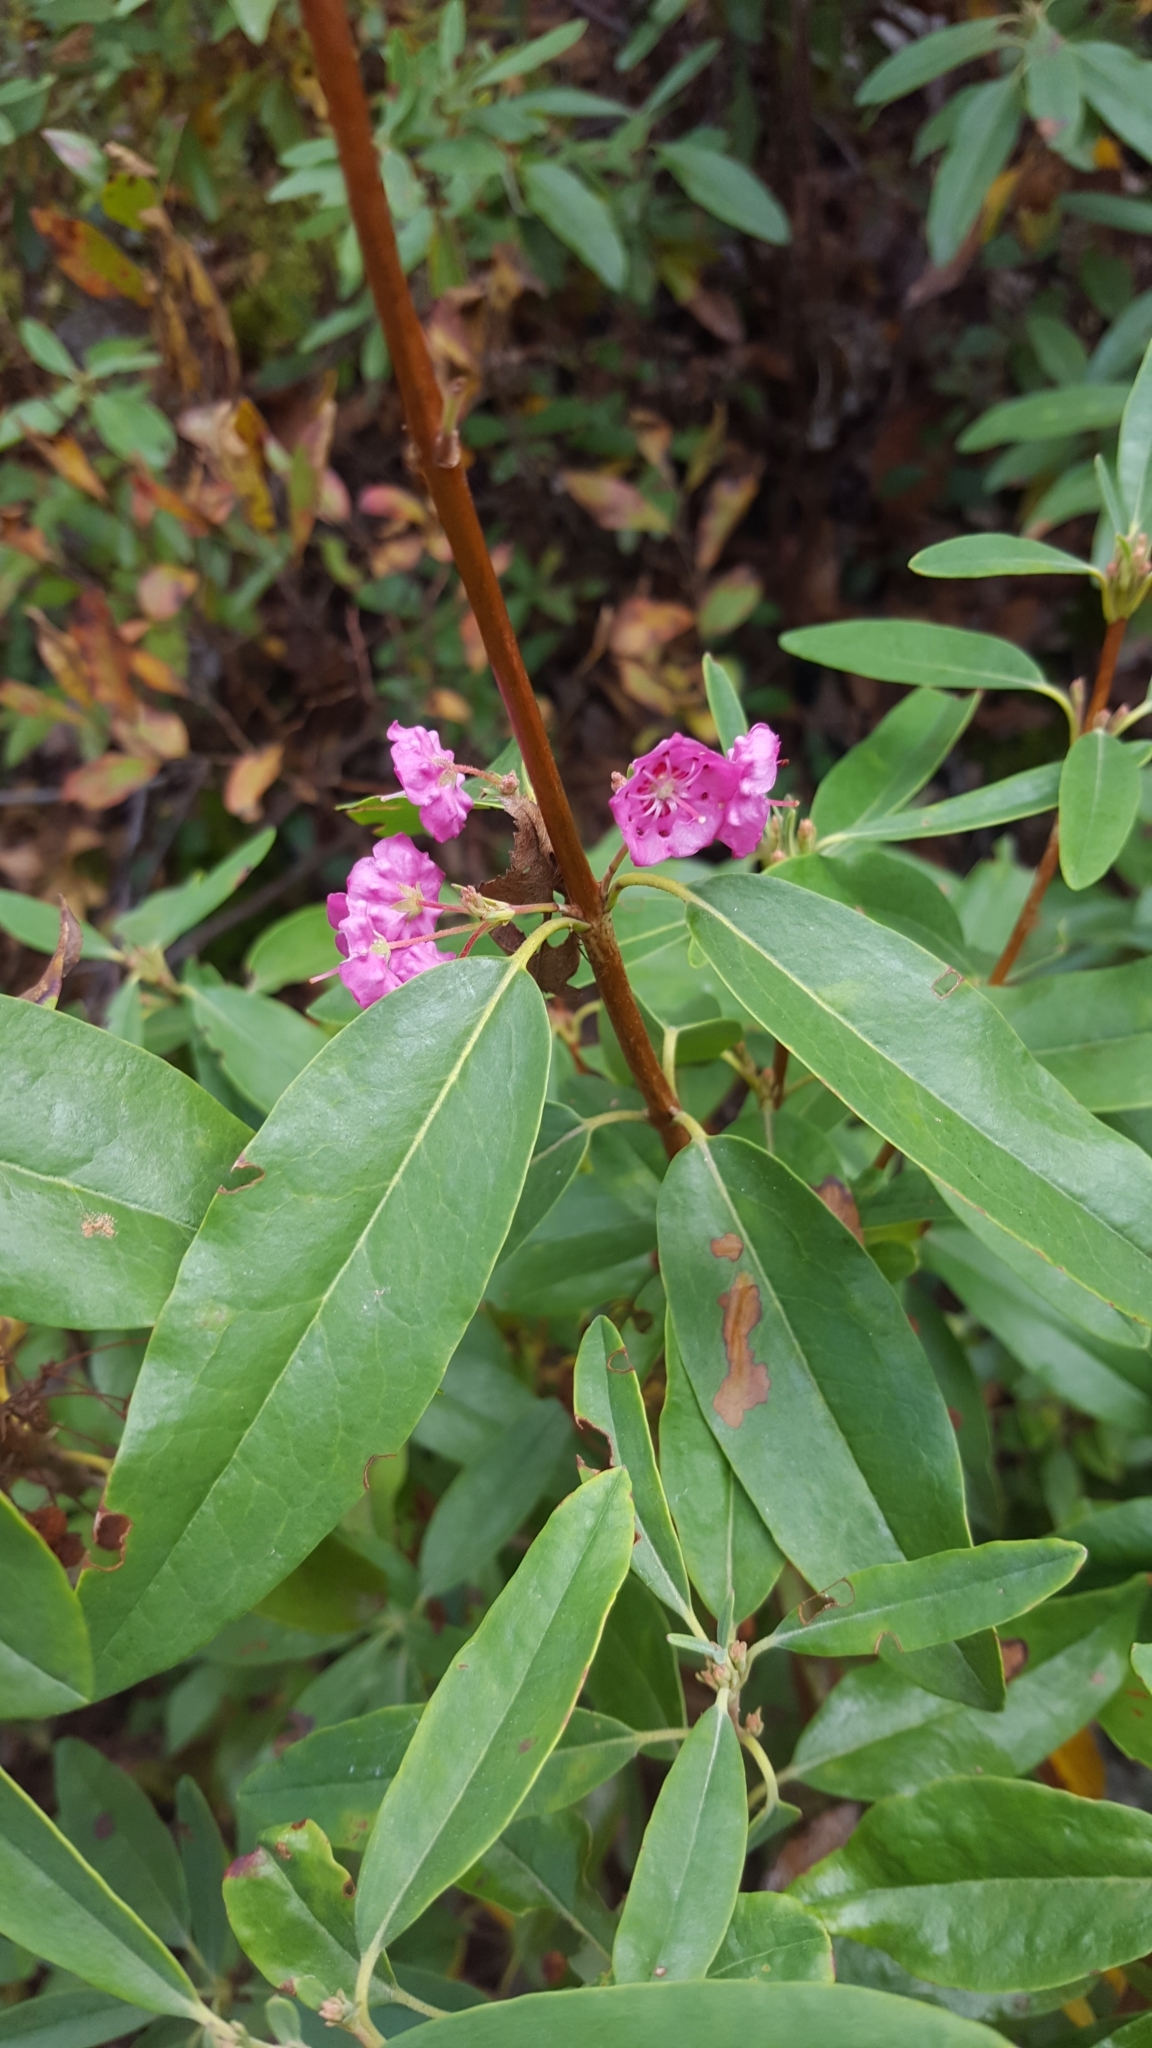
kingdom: Plantae
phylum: Tracheophyta
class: Magnoliopsida
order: Ericales
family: Ericaceae
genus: Kalmia
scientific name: Kalmia angustifolia
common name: Sheep-laurel
